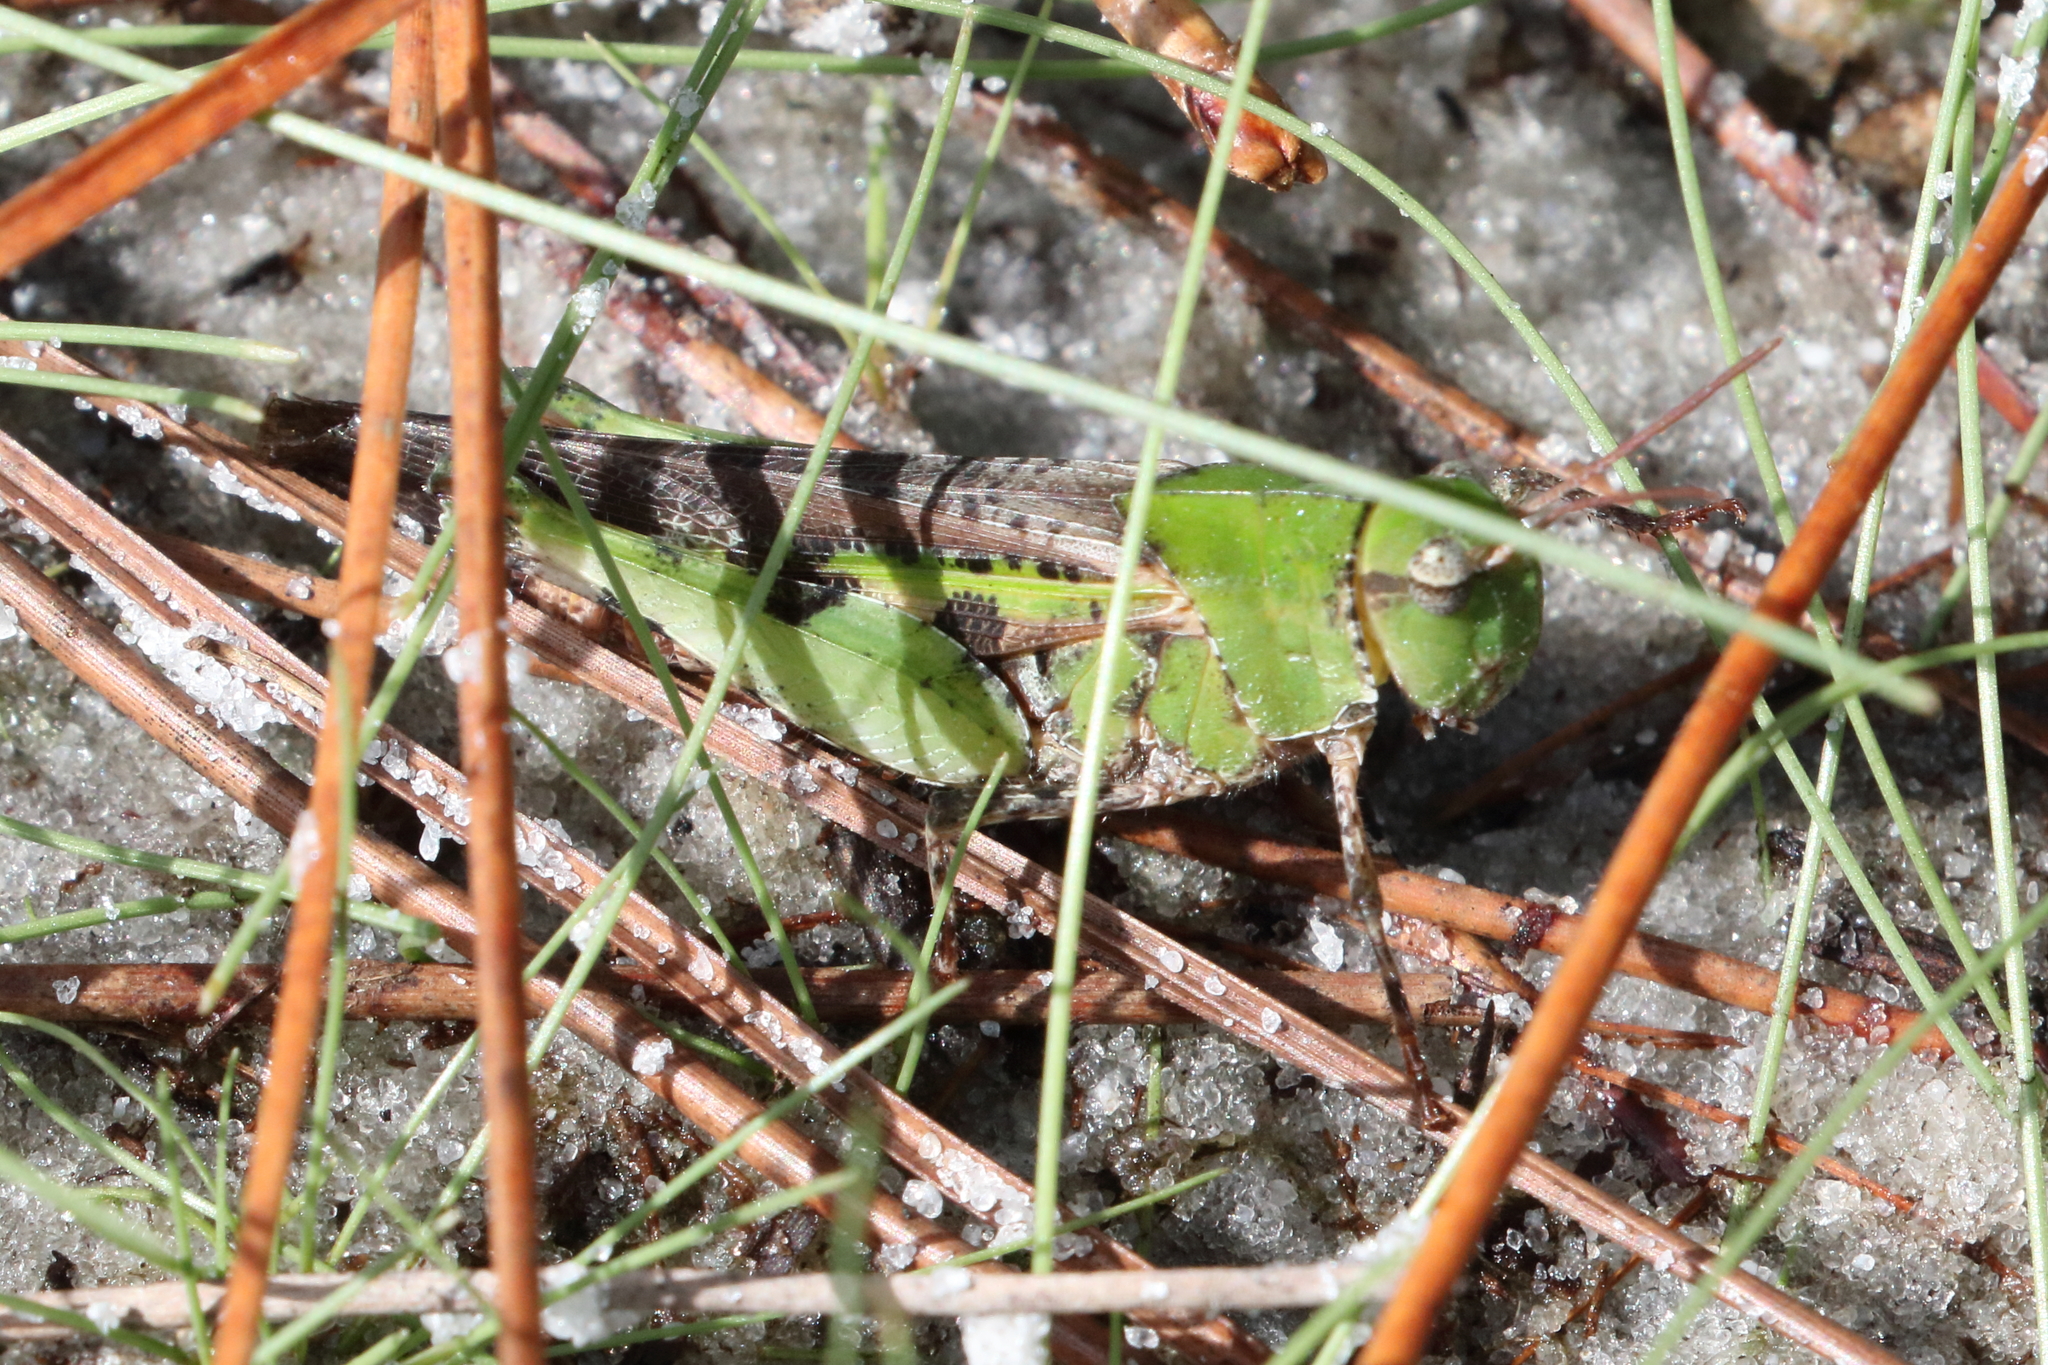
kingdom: Animalia
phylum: Arthropoda
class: Insecta
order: Orthoptera
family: Acrididae
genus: Chortophaga
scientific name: Chortophaga australior
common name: Southern green-striped grasshopper
